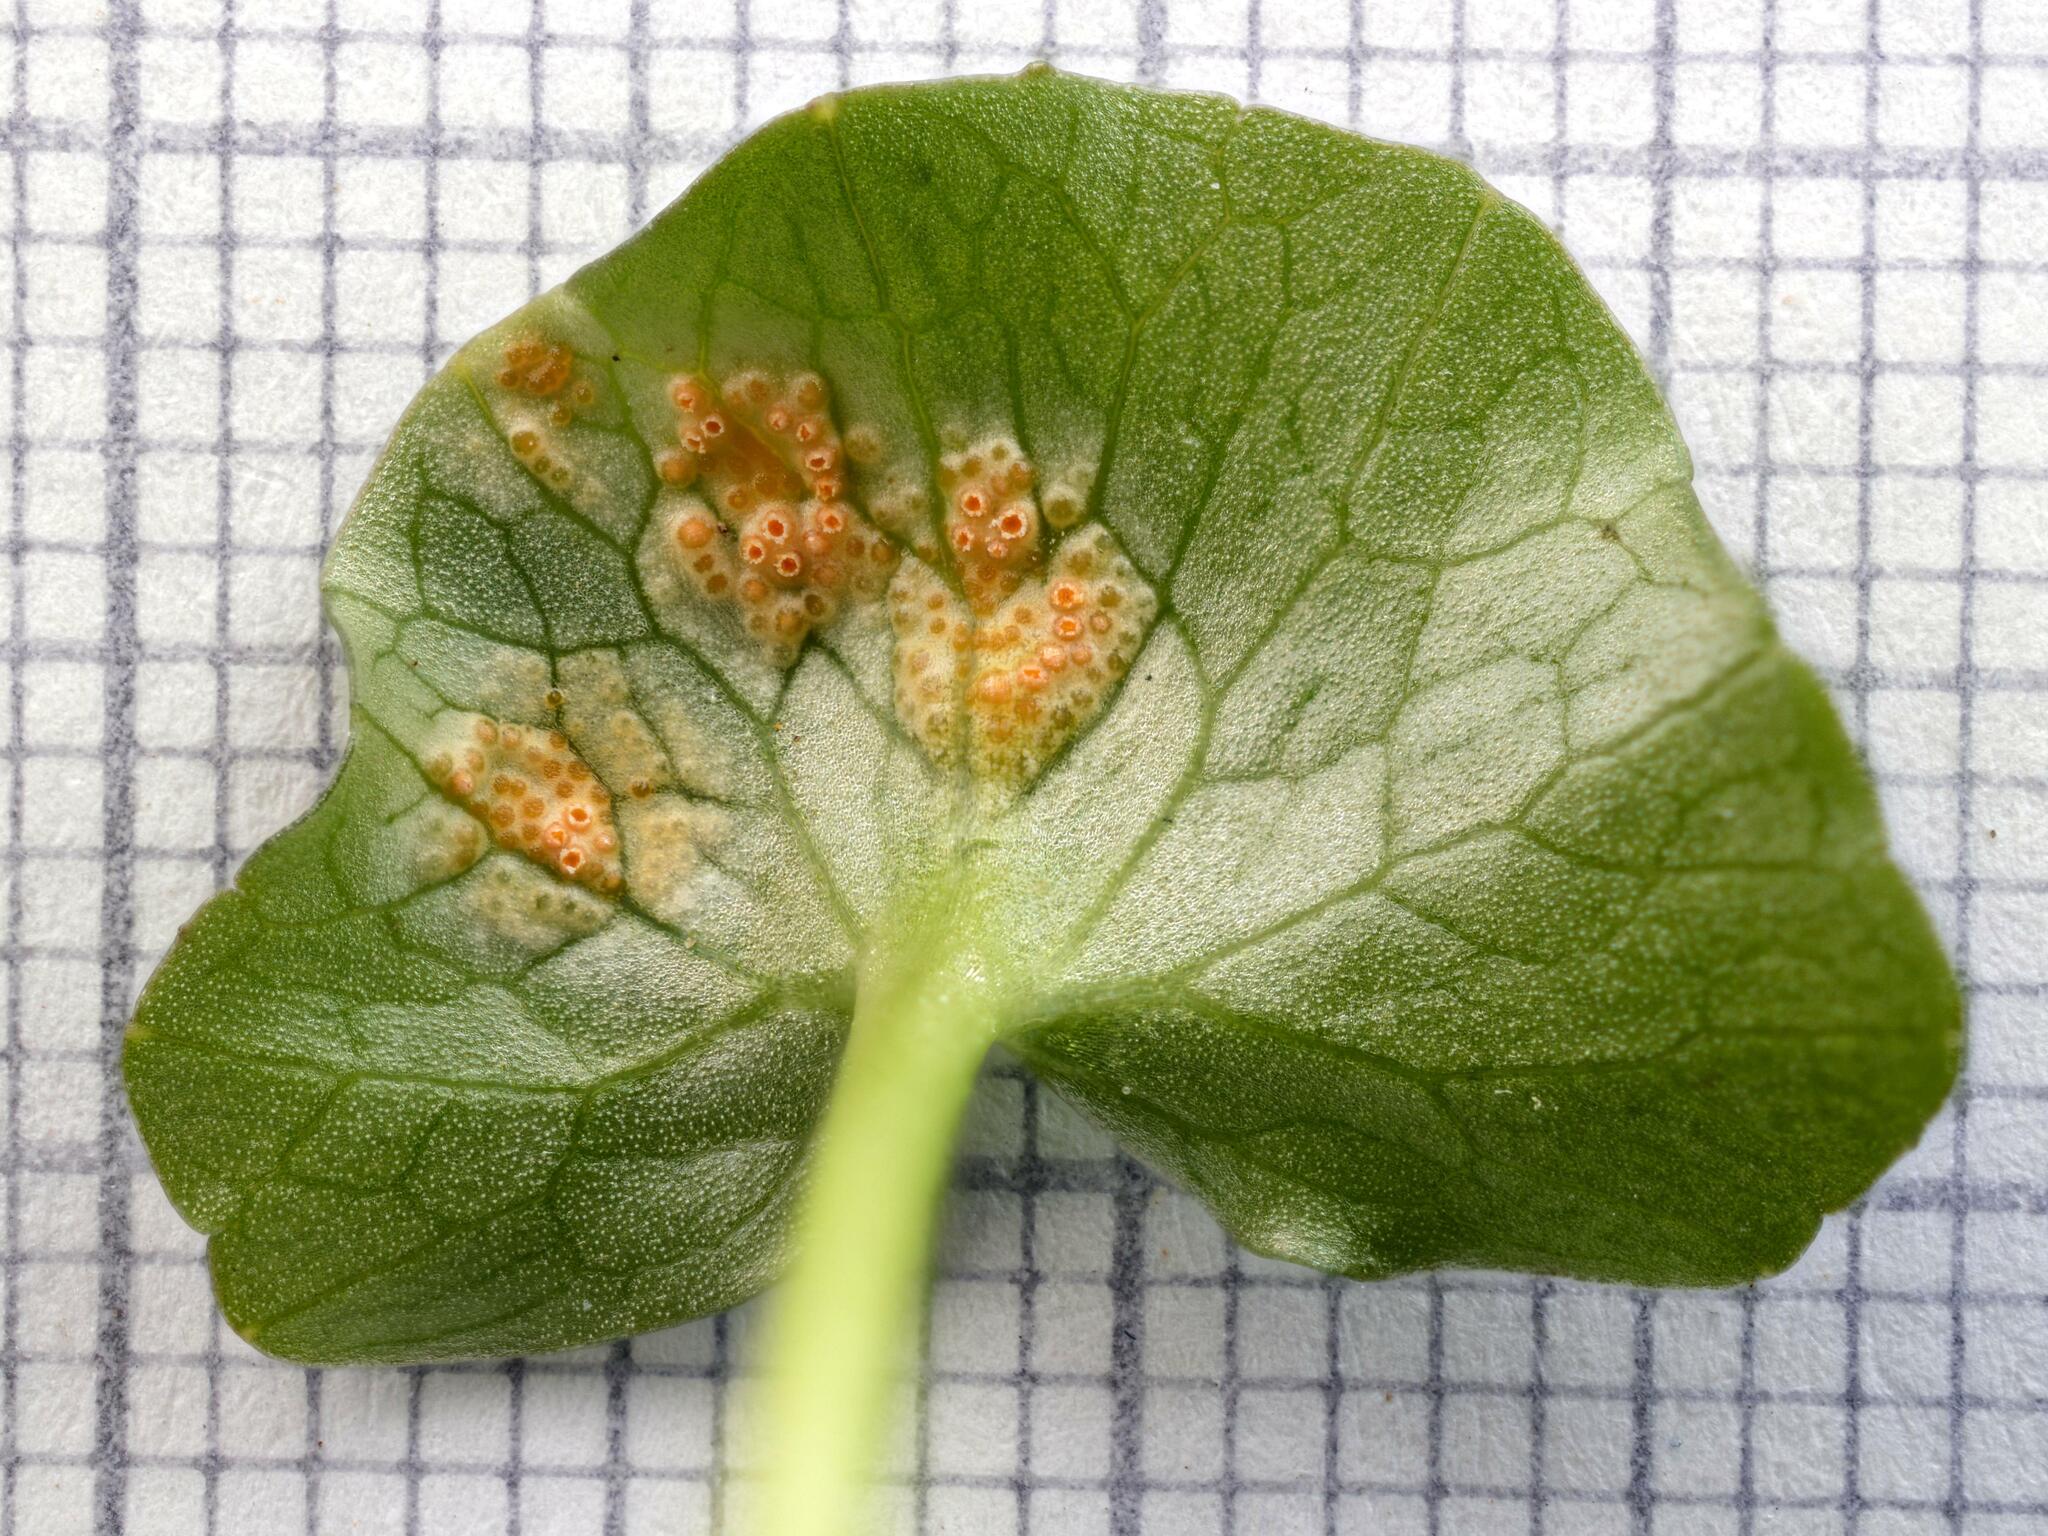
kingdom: Fungi
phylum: Basidiomycota
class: Pucciniomycetes
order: Pucciniales
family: Pucciniaceae
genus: Uromyces
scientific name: Uromyces
